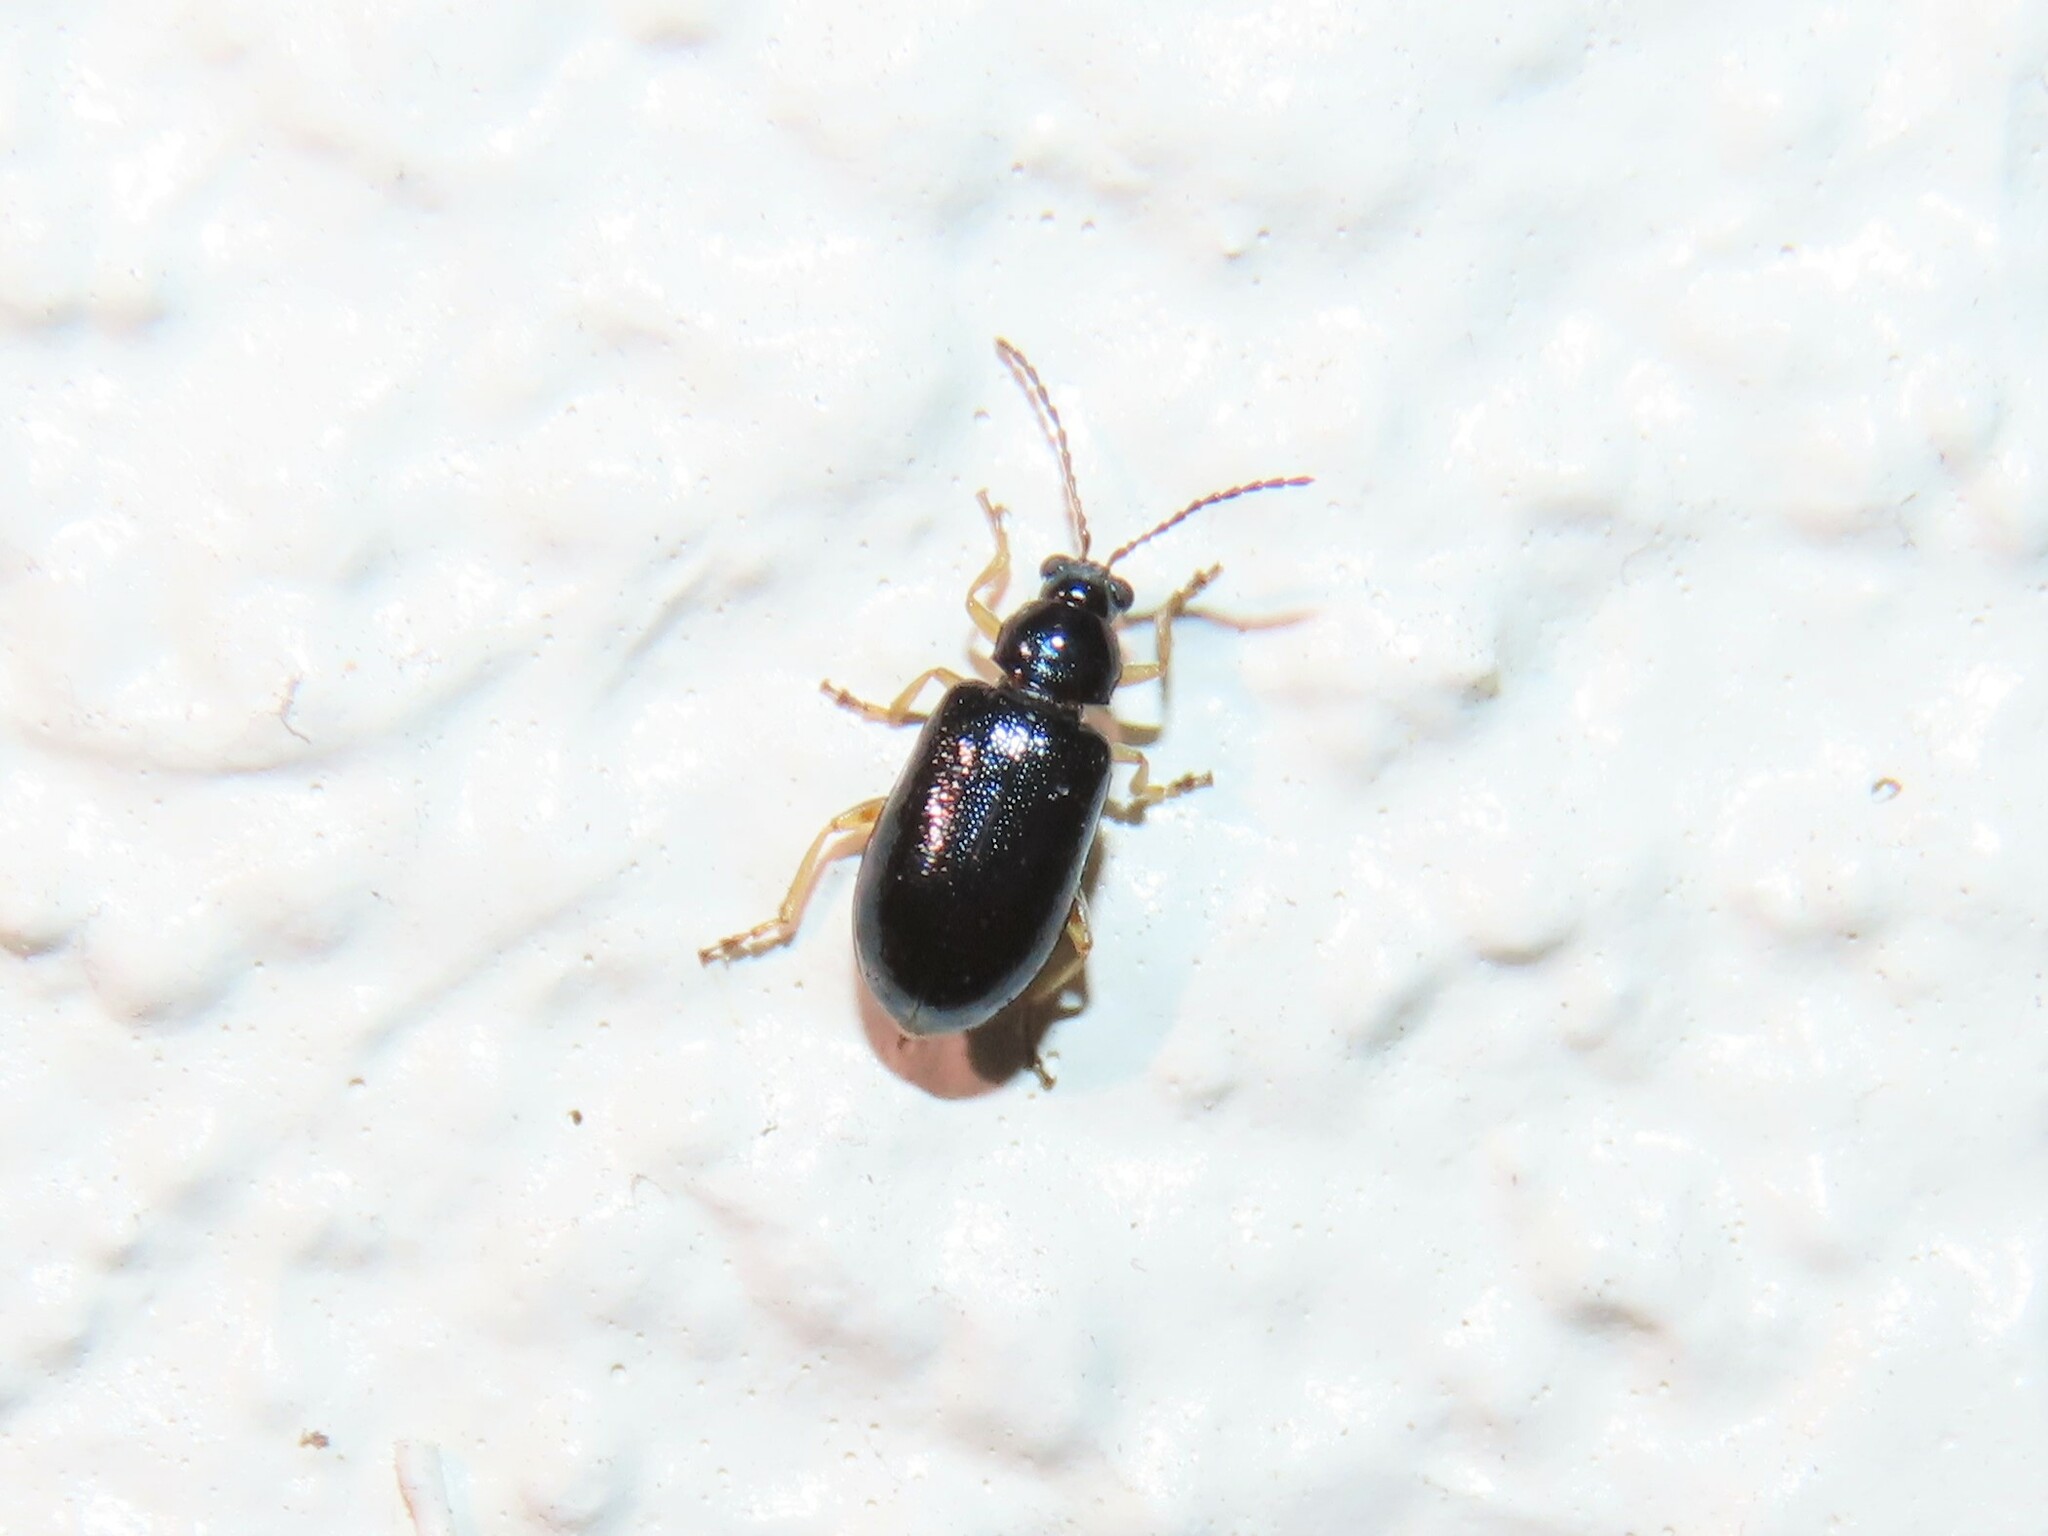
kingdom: Animalia
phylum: Arthropoda
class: Insecta
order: Coleoptera
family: Chrysomelidae
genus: Lysathia
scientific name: Lysathia ludoviciana
